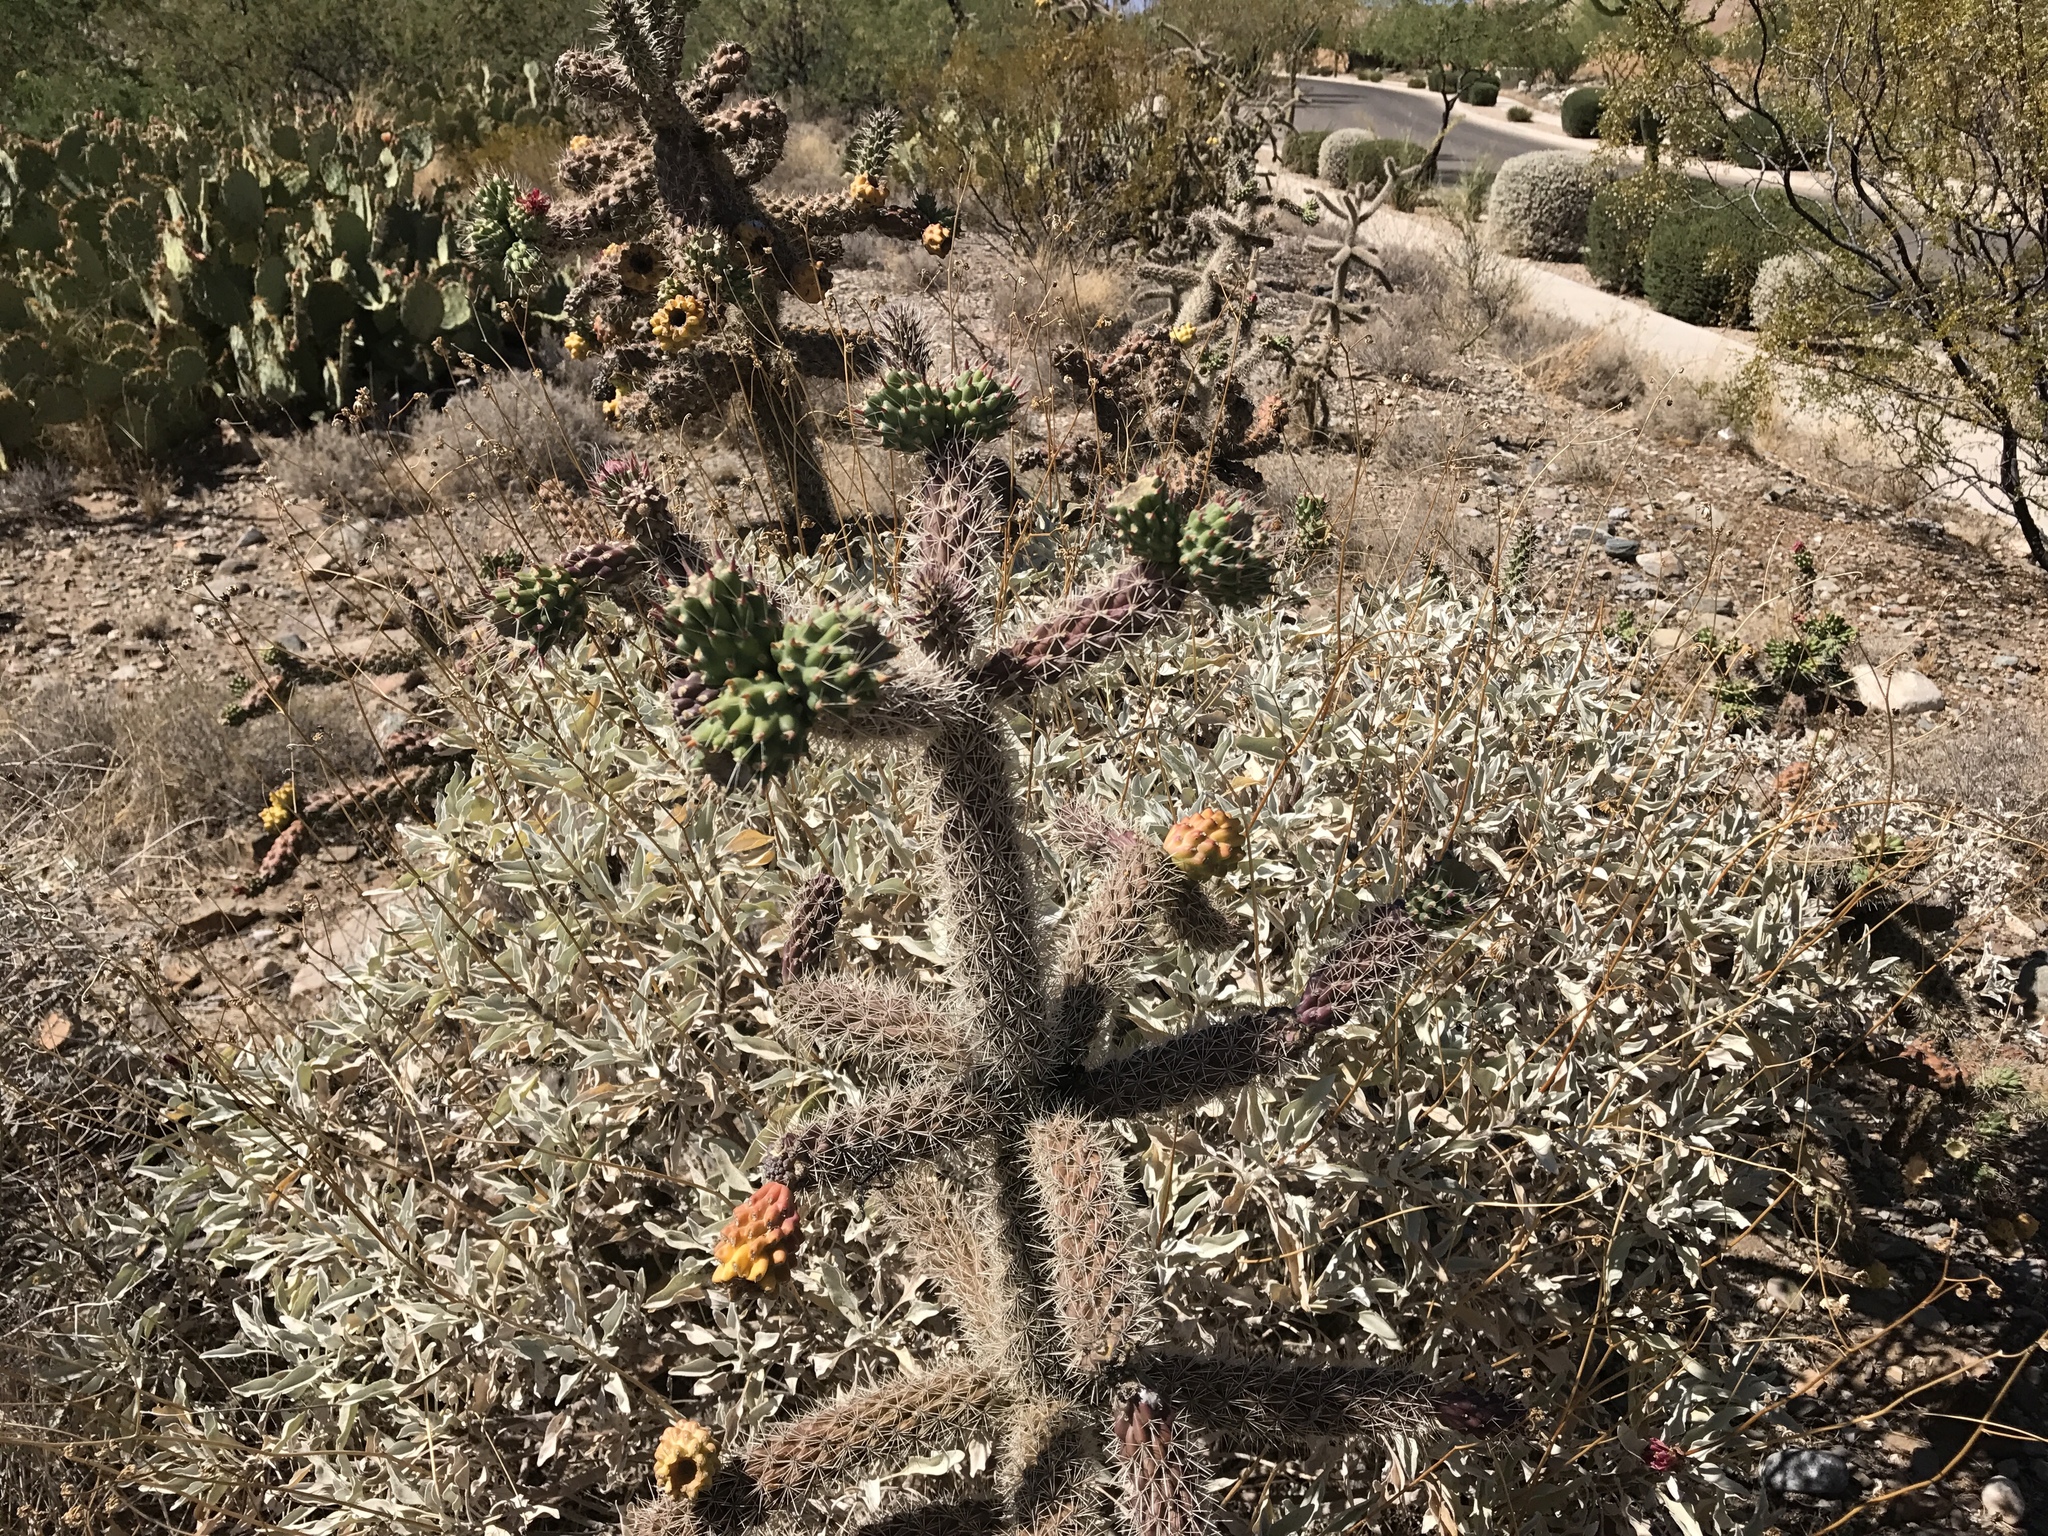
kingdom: Plantae
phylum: Tracheophyta
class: Magnoliopsida
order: Caryophyllales
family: Cactaceae
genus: Cylindropuntia
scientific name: Cylindropuntia imbricata
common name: Candelabrum cactus
